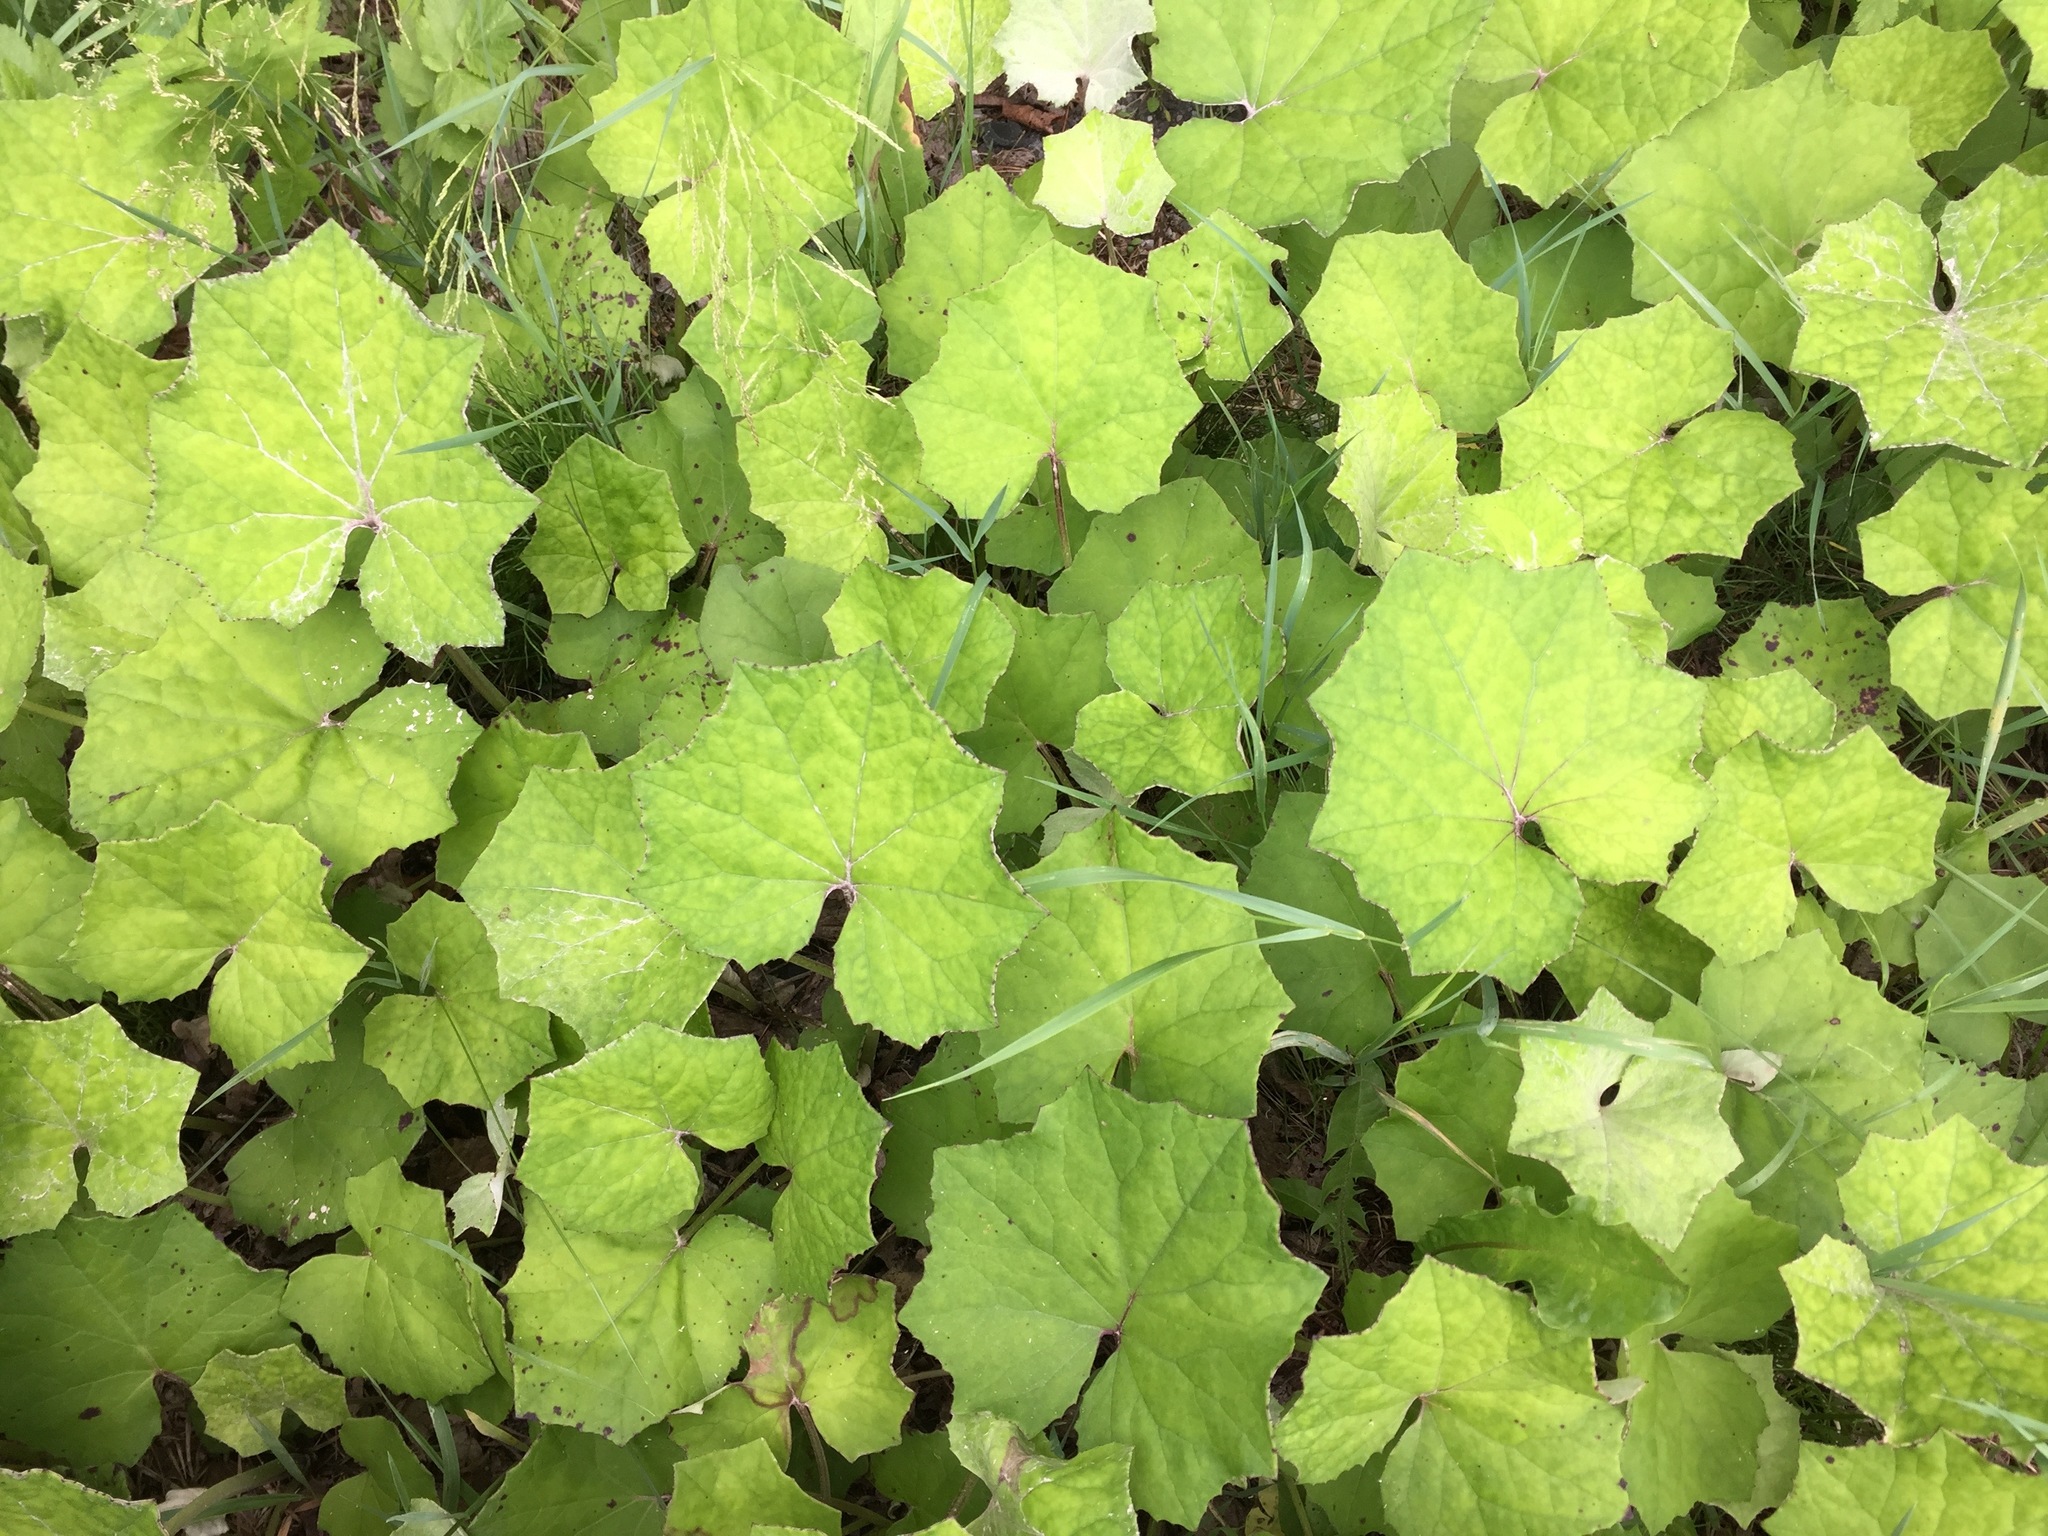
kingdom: Plantae
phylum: Tracheophyta
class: Magnoliopsida
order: Asterales
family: Asteraceae
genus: Tussilago
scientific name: Tussilago farfara
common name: Coltsfoot
